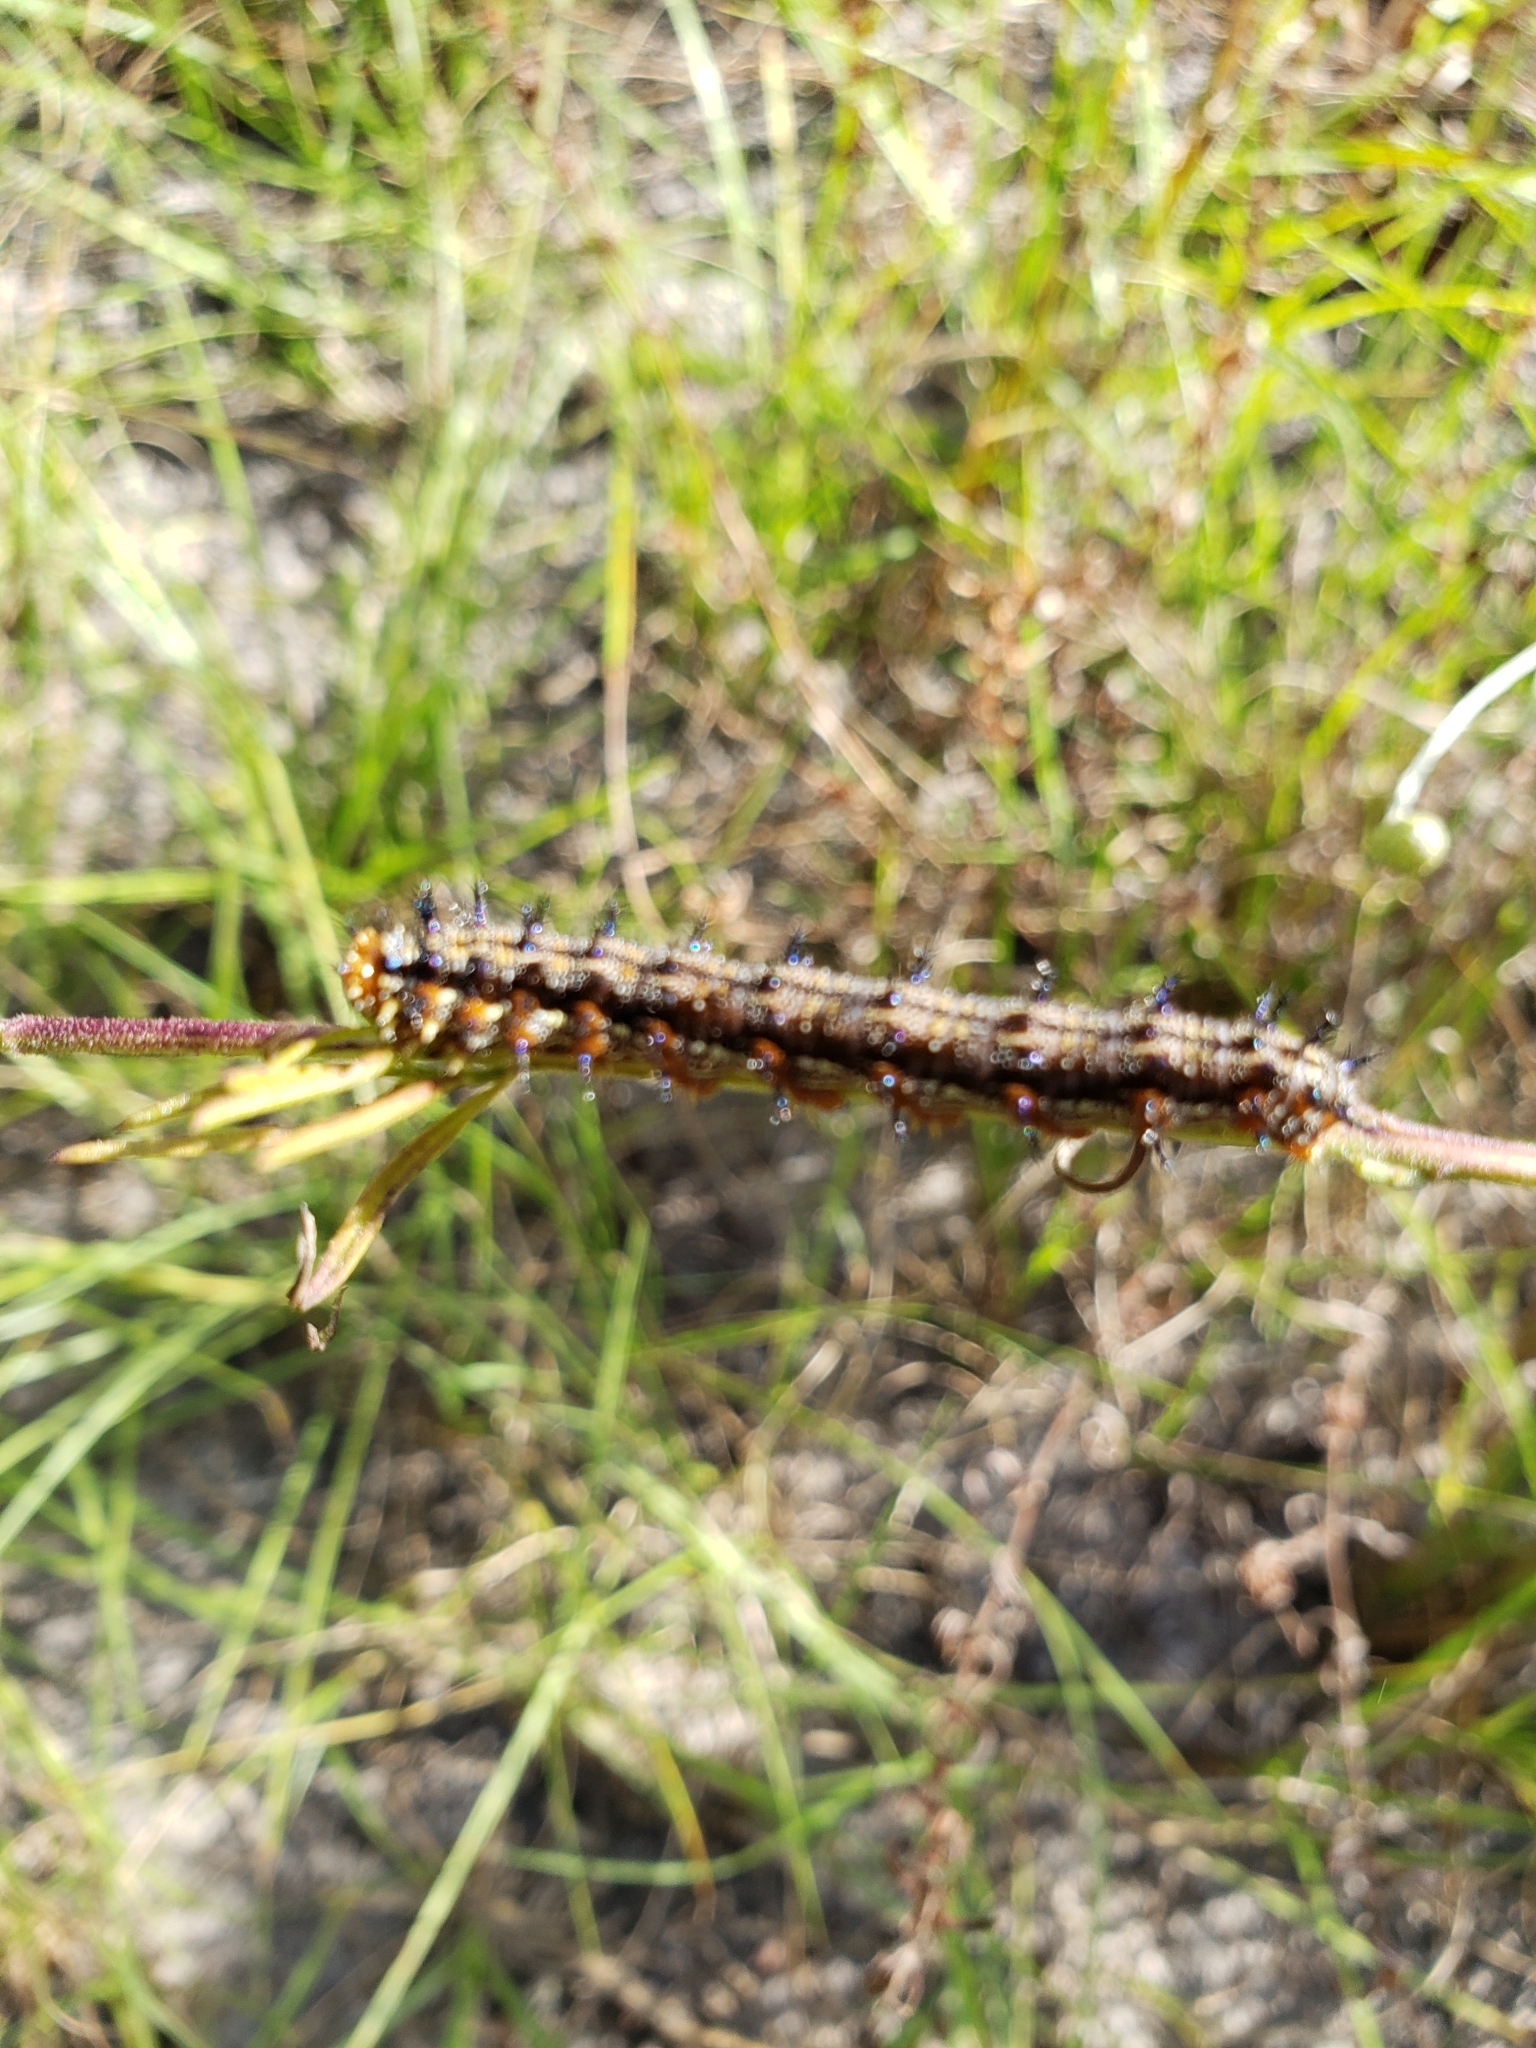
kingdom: Animalia
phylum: Arthropoda
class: Insecta
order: Lepidoptera
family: Nymphalidae
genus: Junonia
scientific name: Junonia coenia
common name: Common buckeye
